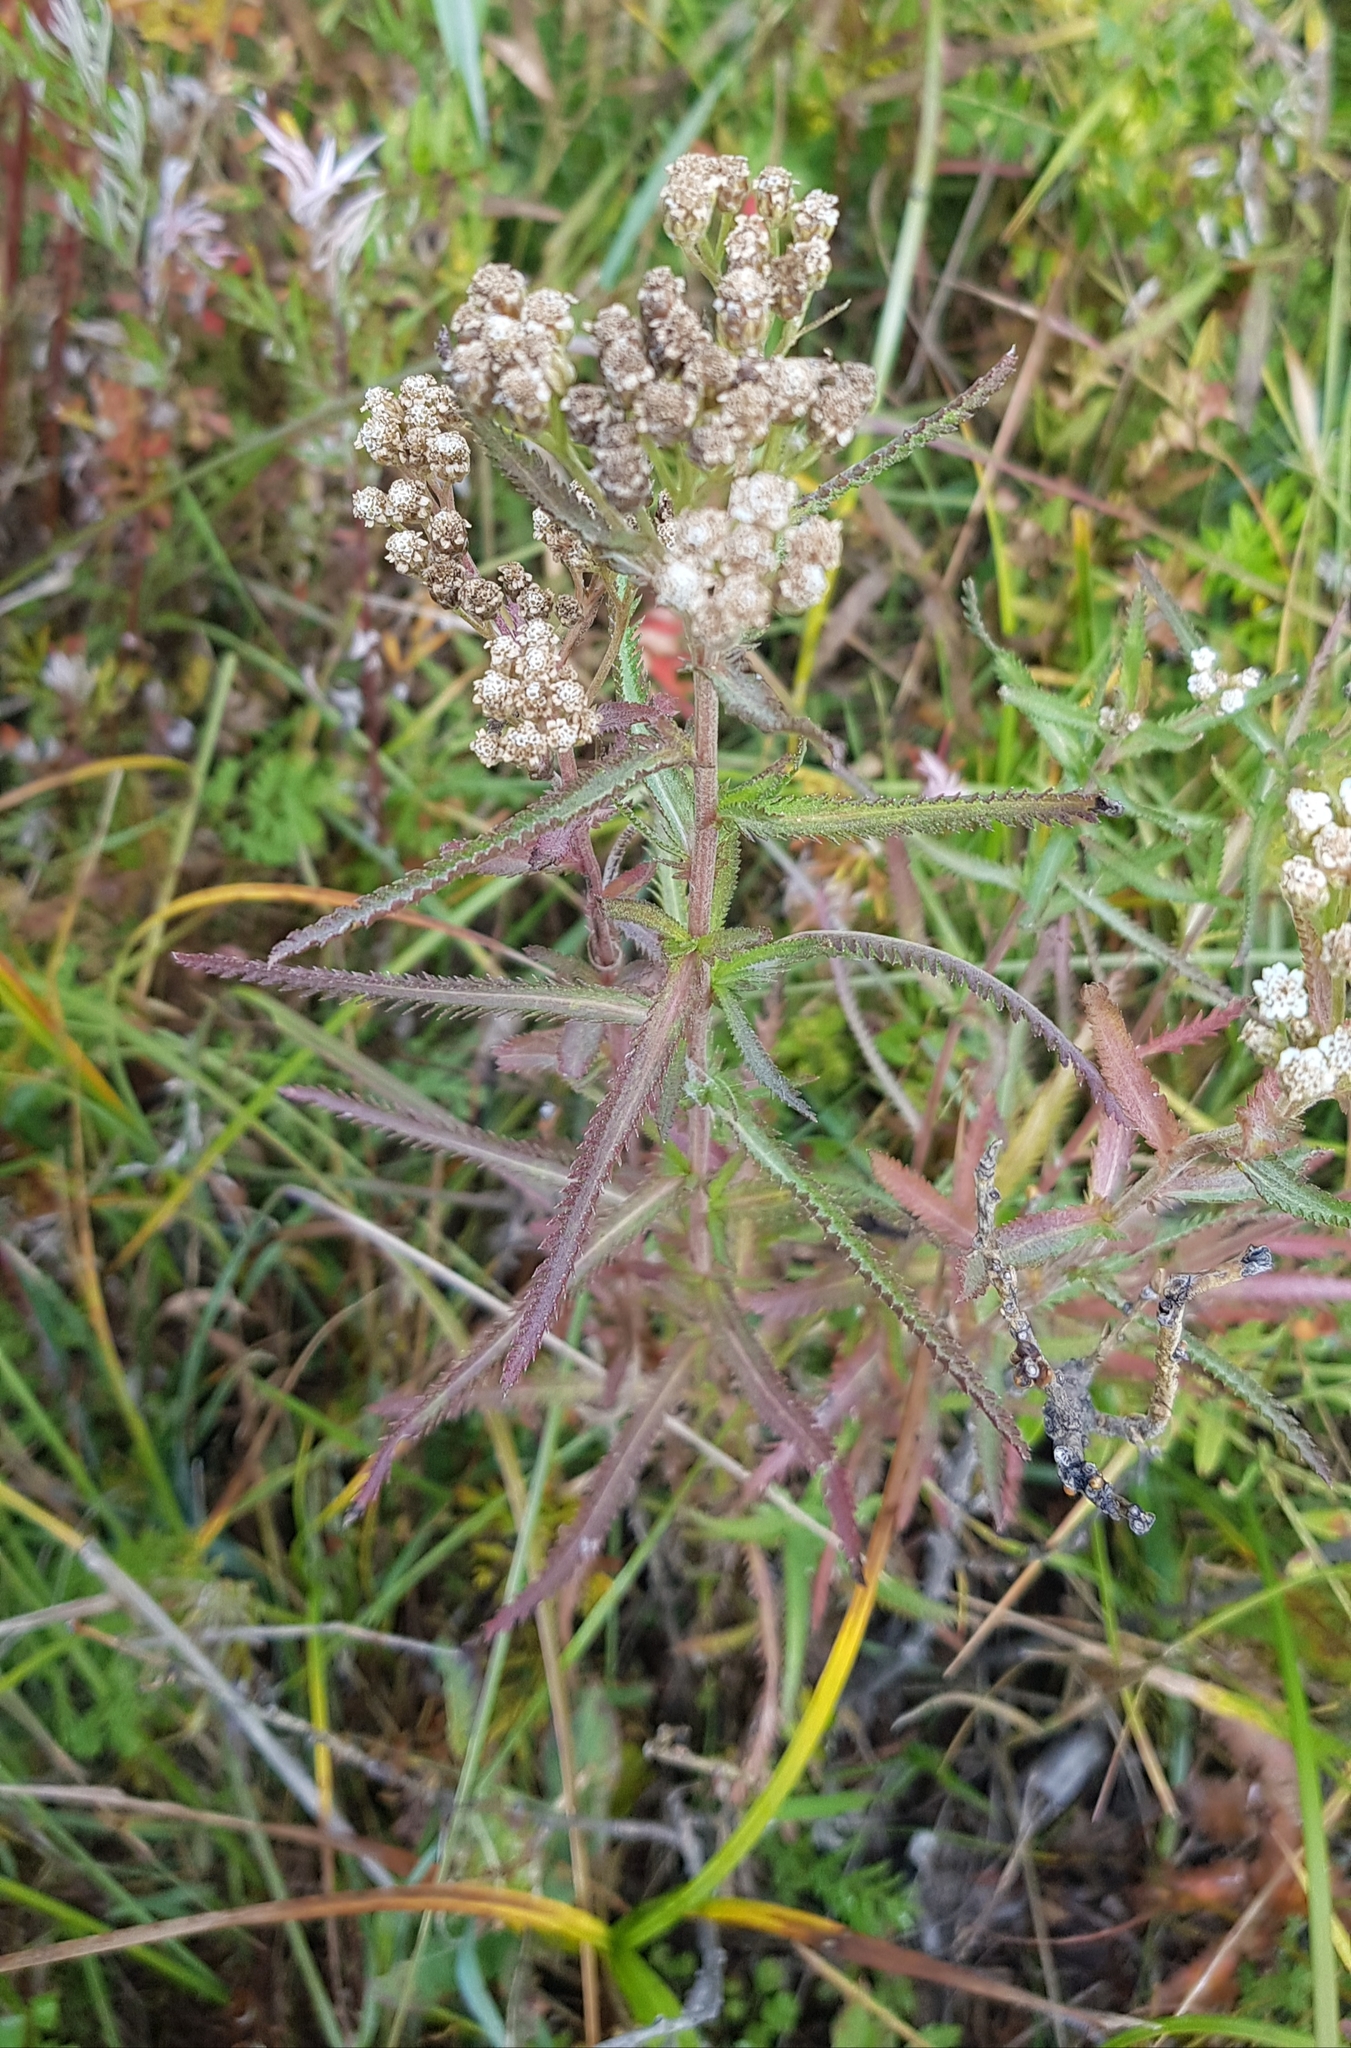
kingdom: Plantae
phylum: Tracheophyta
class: Magnoliopsida
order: Asterales
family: Asteraceae
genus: Achillea
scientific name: Achillea alpina
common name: Siberian yarrow
